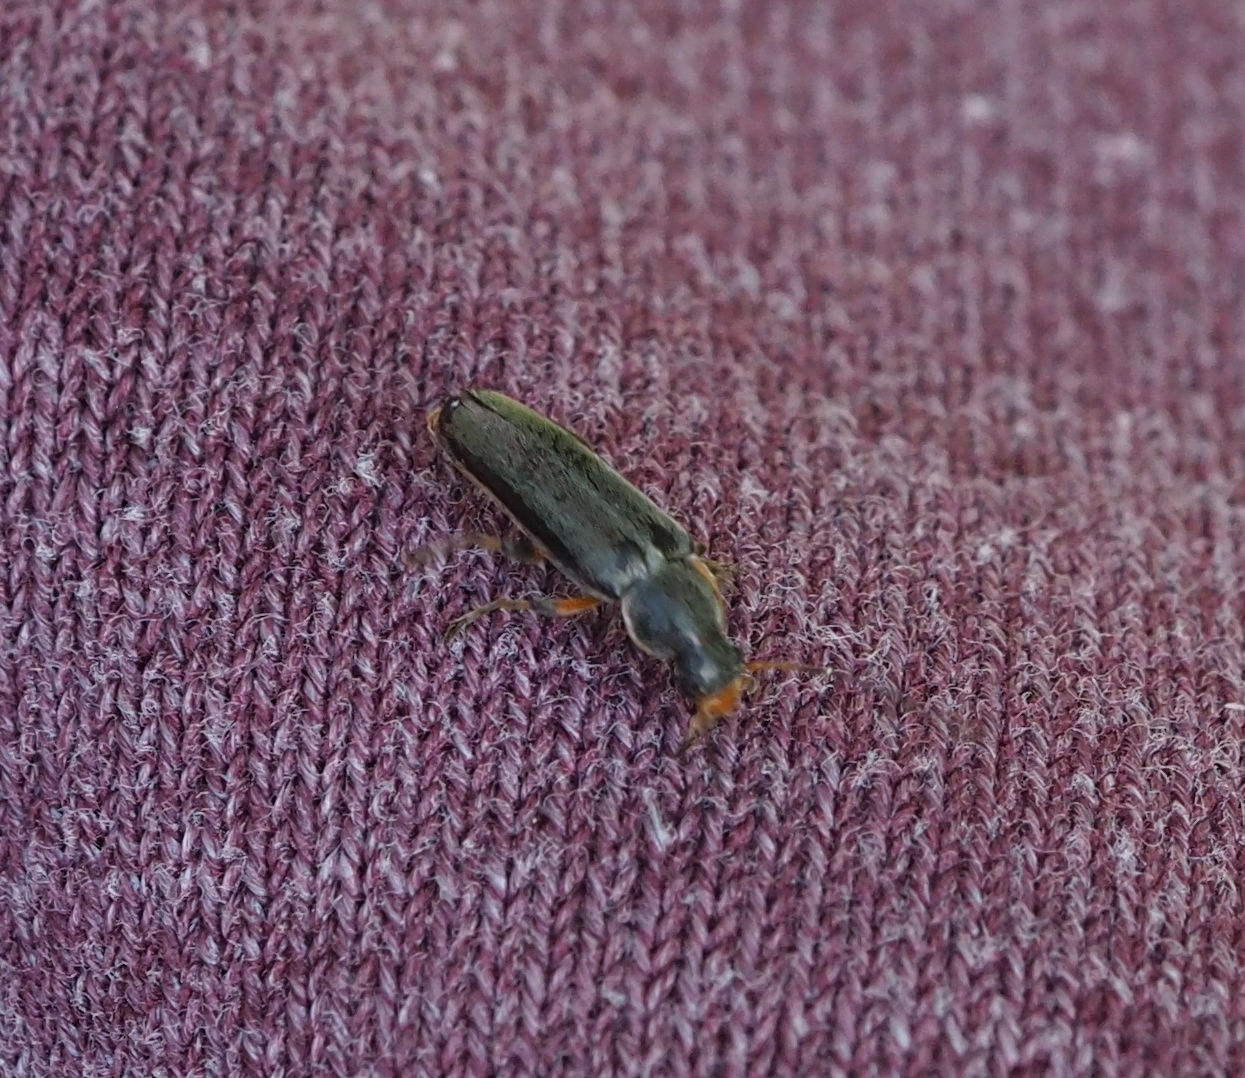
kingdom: Animalia
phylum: Arthropoda
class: Insecta
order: Coleoptera
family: Melandryidae
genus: Osphya
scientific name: Osphya bipunctata
